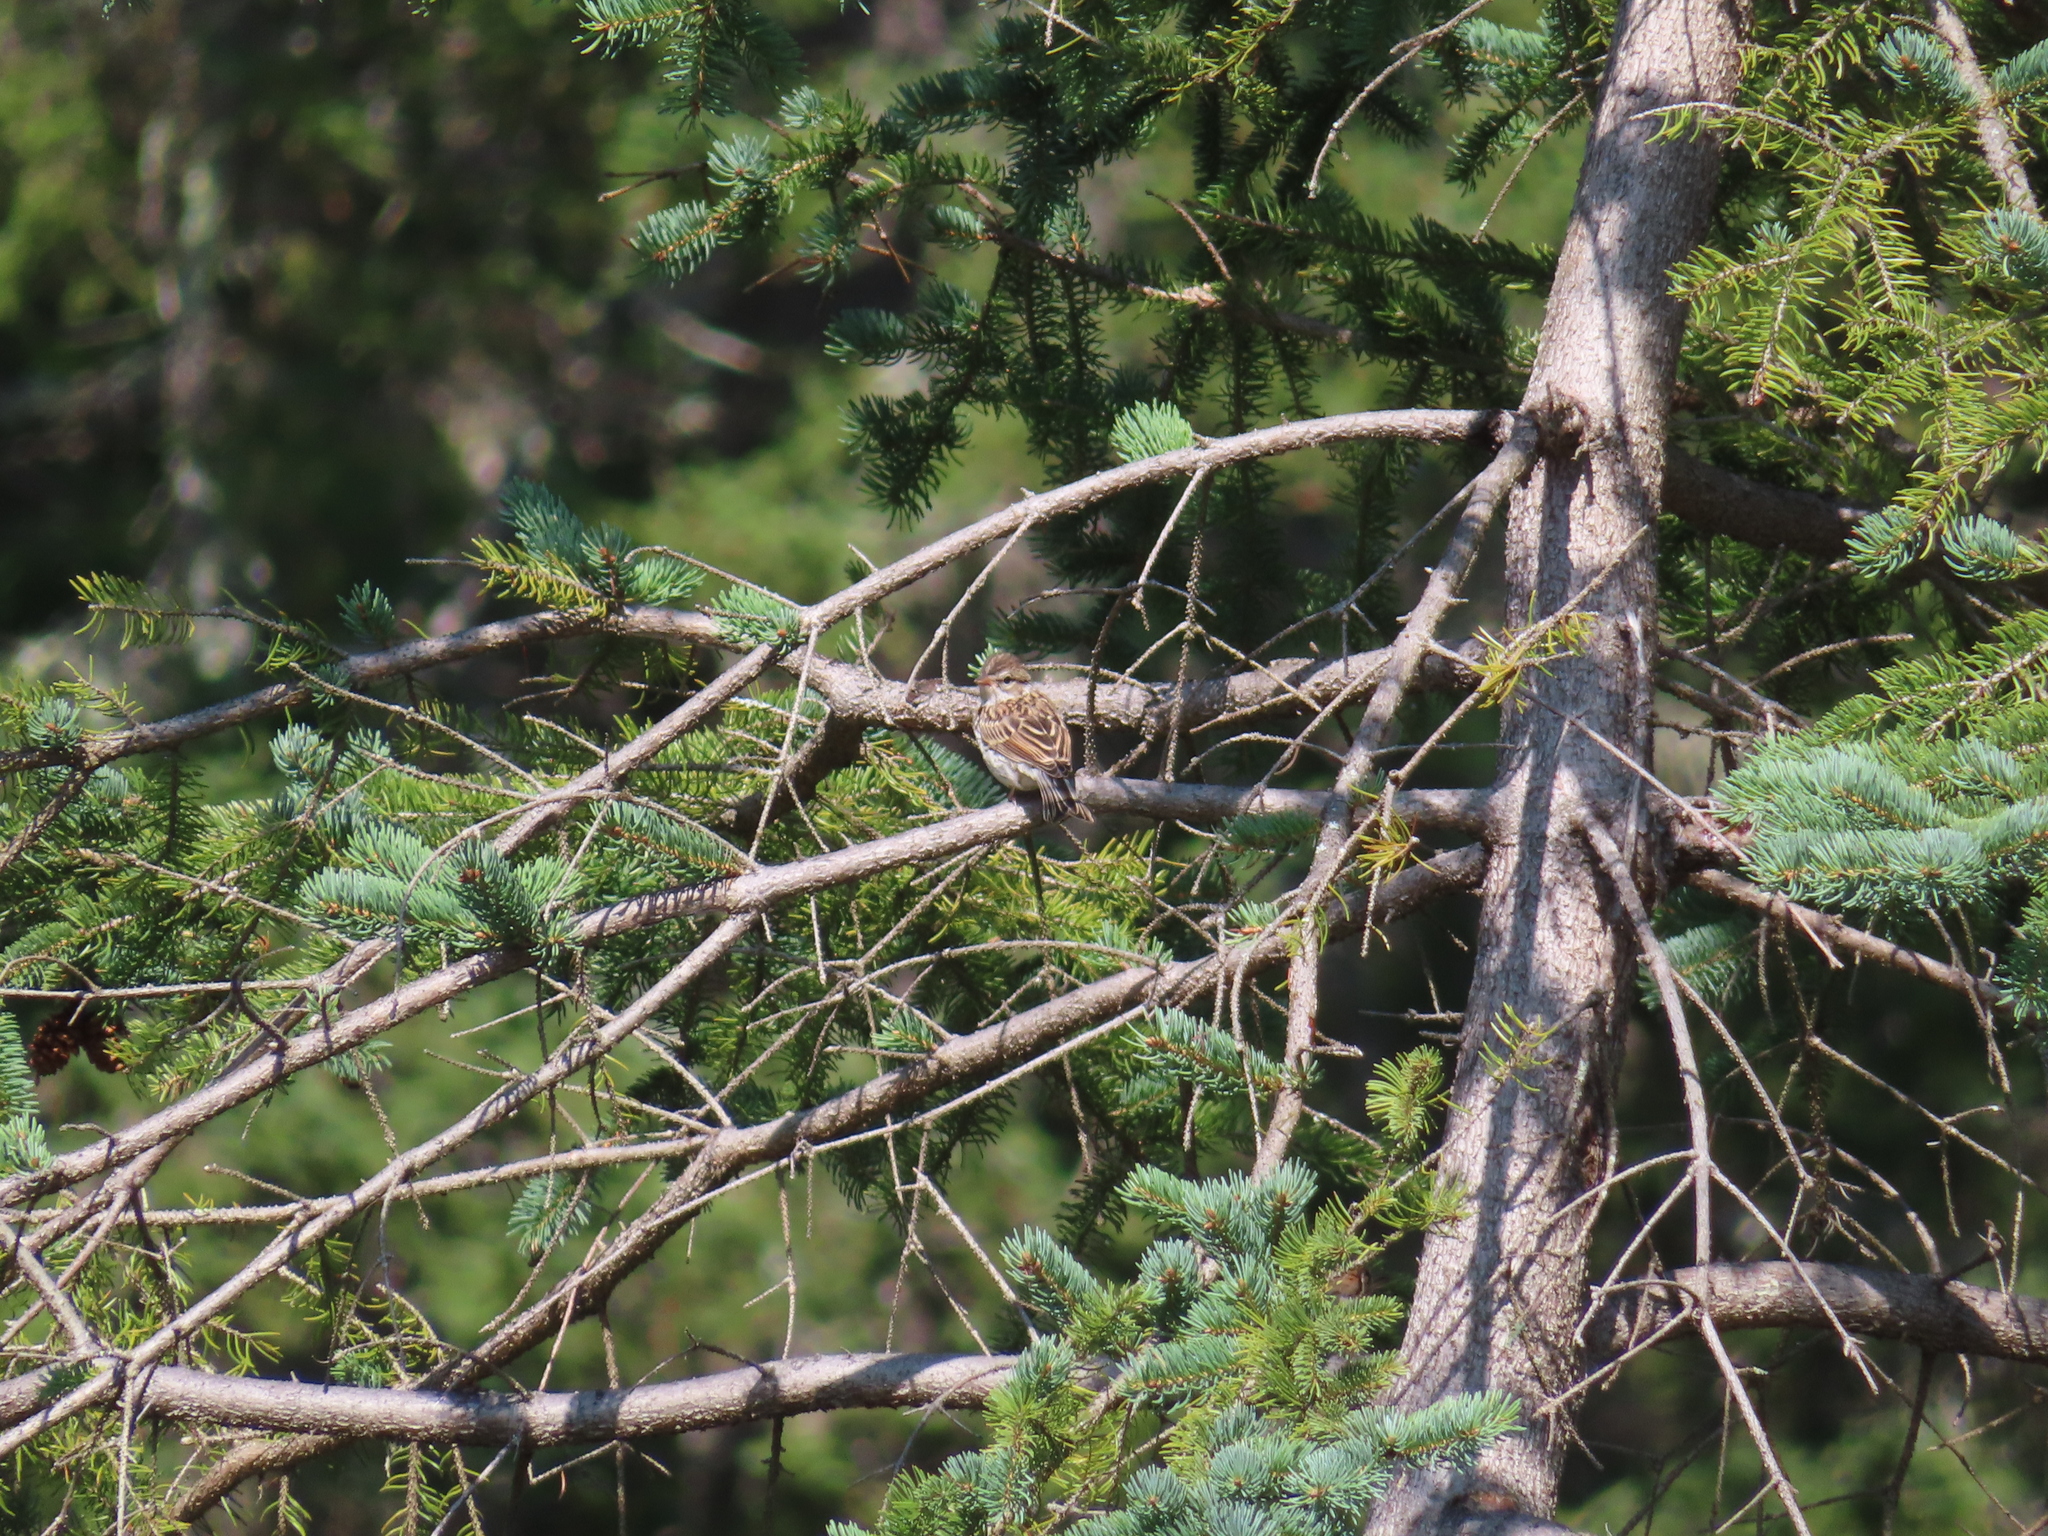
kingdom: Animalia
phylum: Chordata
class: Aves
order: Passeriformes
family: Passerellidae
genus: Spizella
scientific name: Spizella passerina
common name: Chipping sparrow
